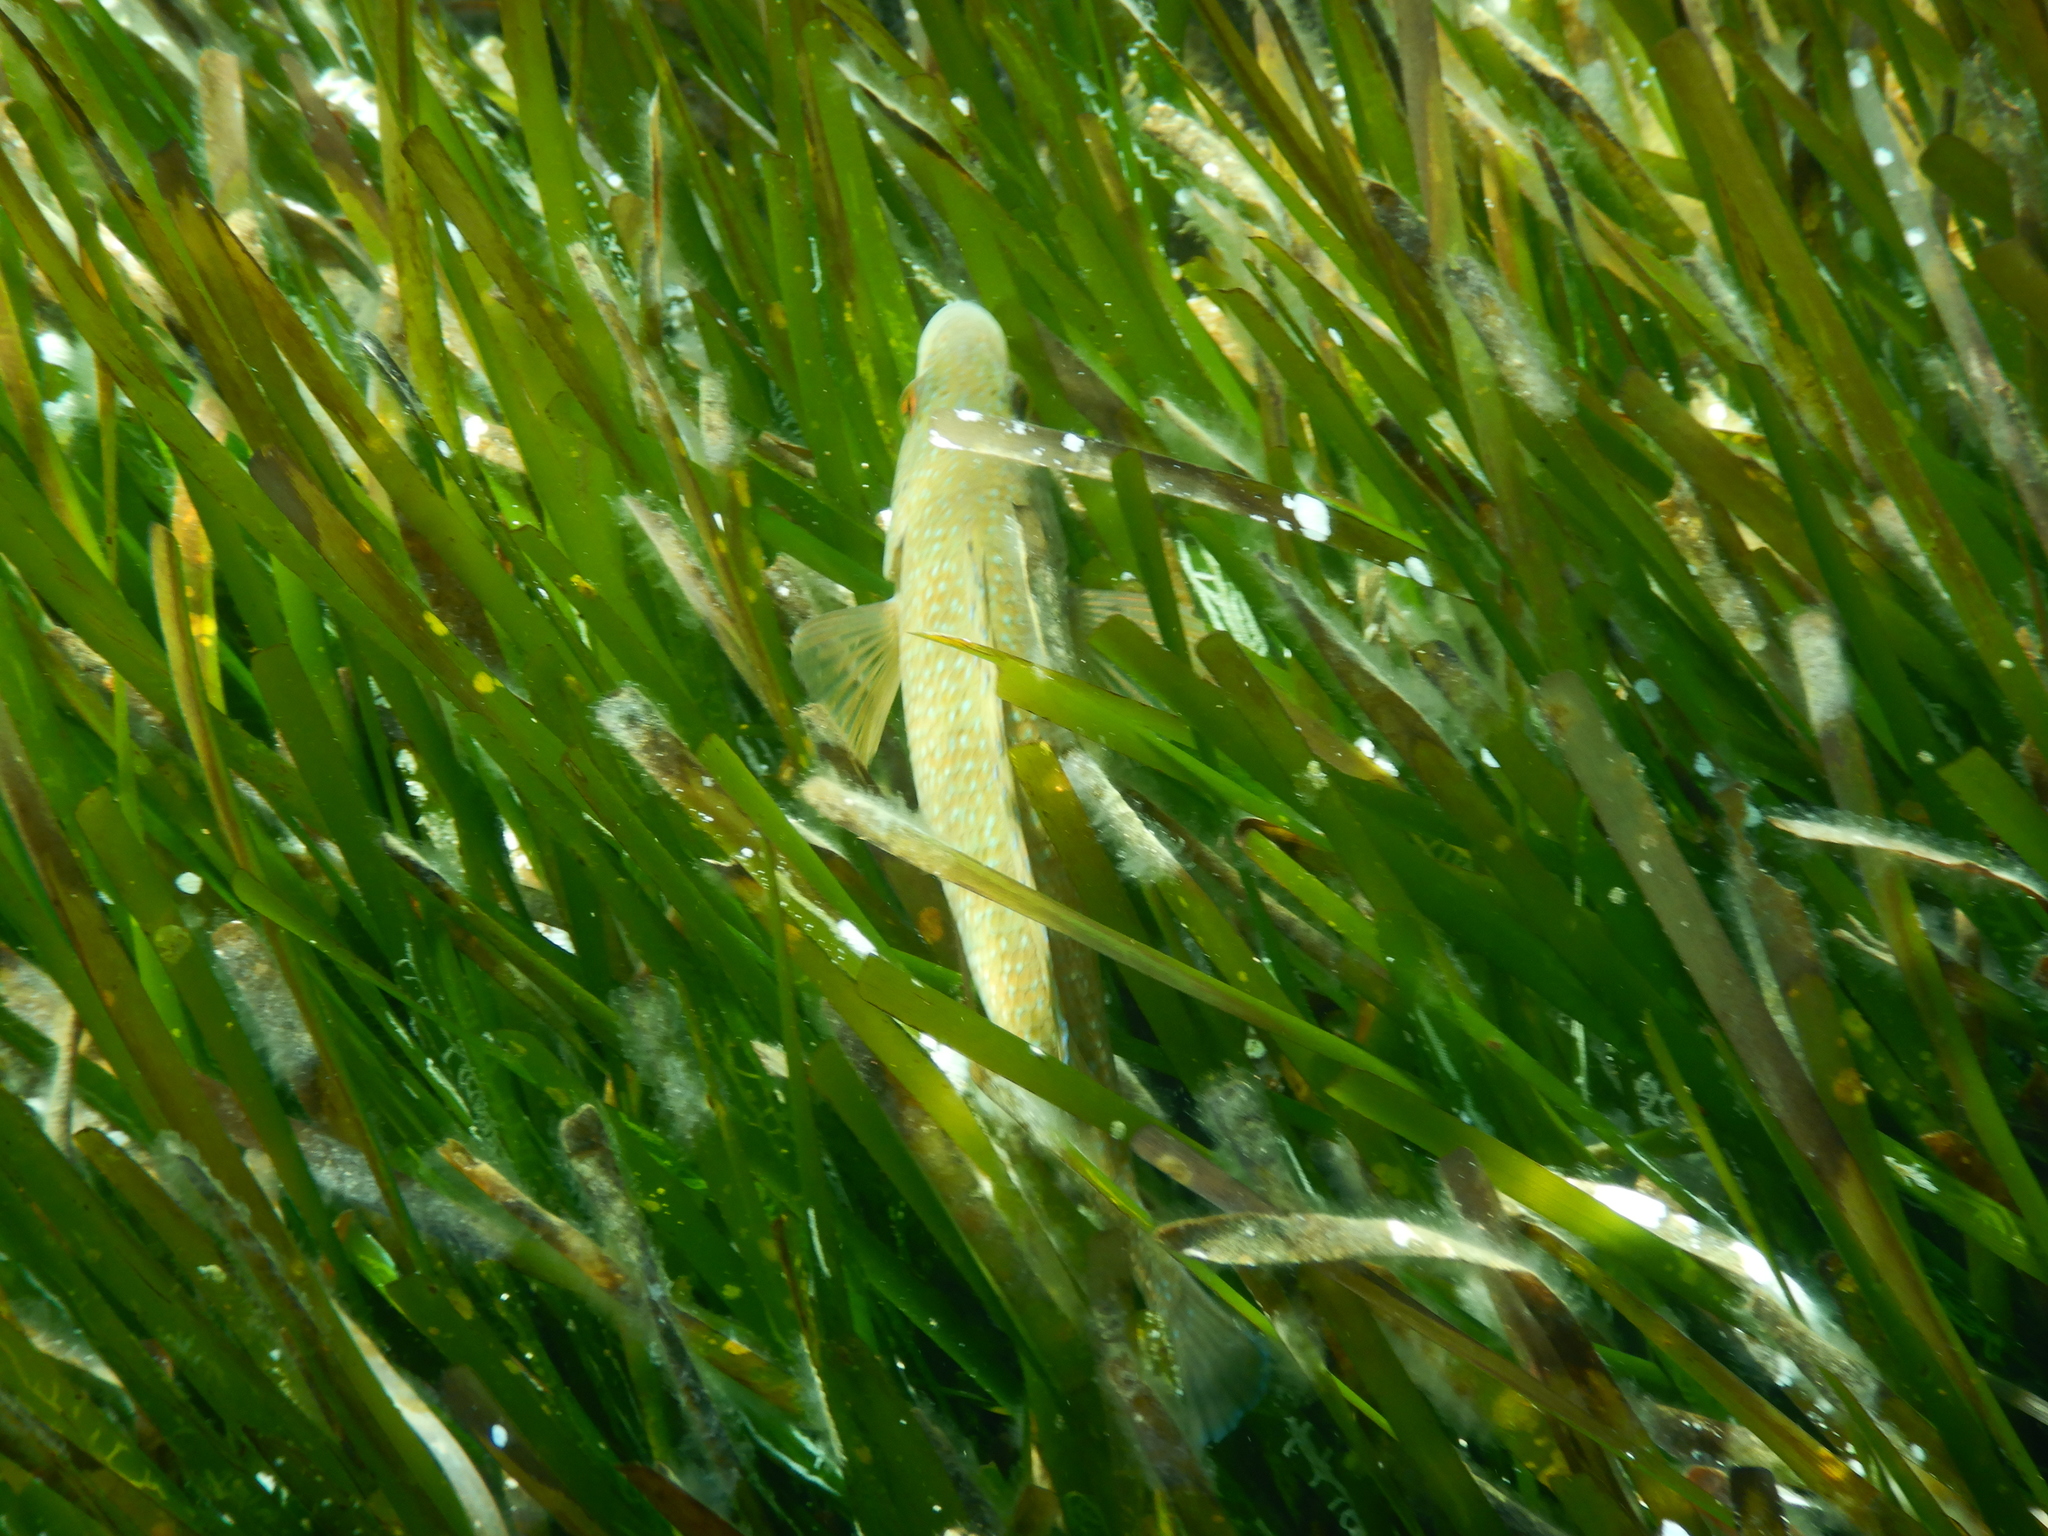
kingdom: Animalia
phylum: Chordata
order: Perciformes
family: Labridae
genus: Labrus
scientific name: Labrus
